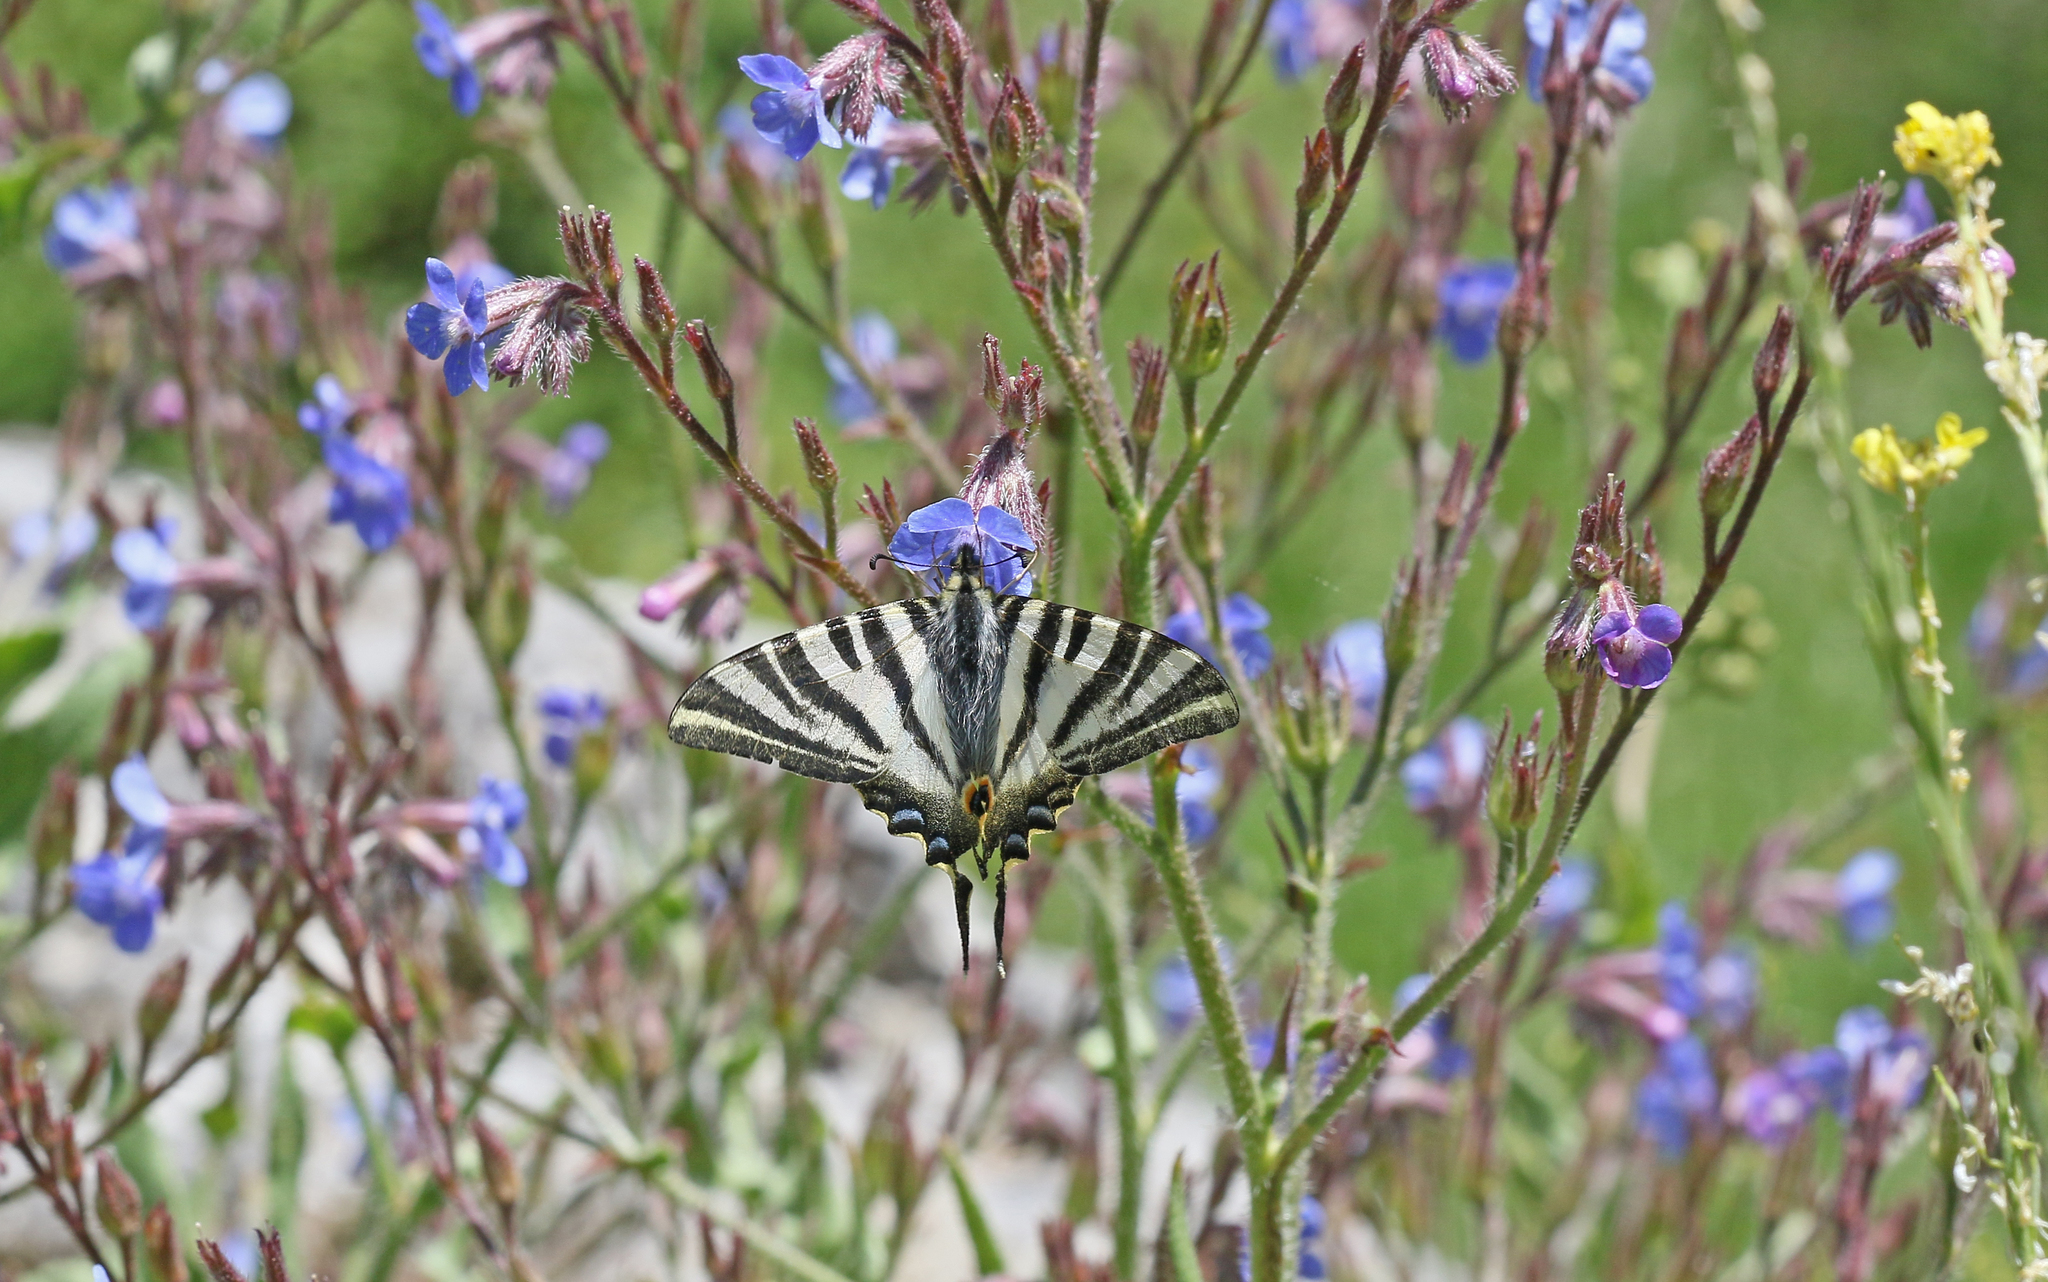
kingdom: Animalia
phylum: Arthropoda
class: Insecta
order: Lepidoptera
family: Papilionidae
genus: Iphiclides
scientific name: Iphiclides feisthamelii
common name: Iberian scarce swallowtail
